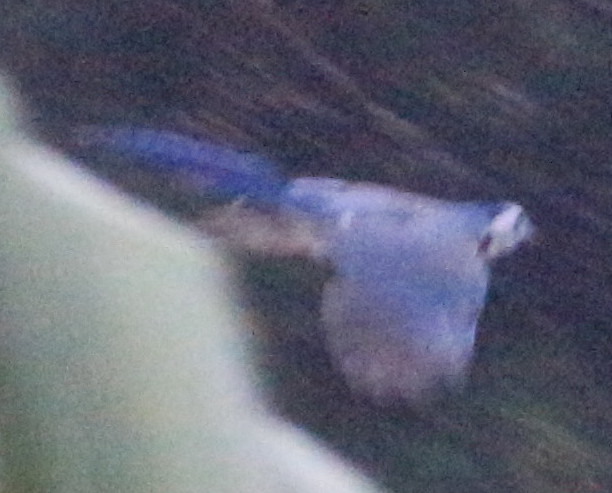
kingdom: Animalia
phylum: Chordata
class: Aves
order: Passeriformes
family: Corvidae
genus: Calocitta
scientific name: Calocitta formosa
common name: White-throated magpie-jay
